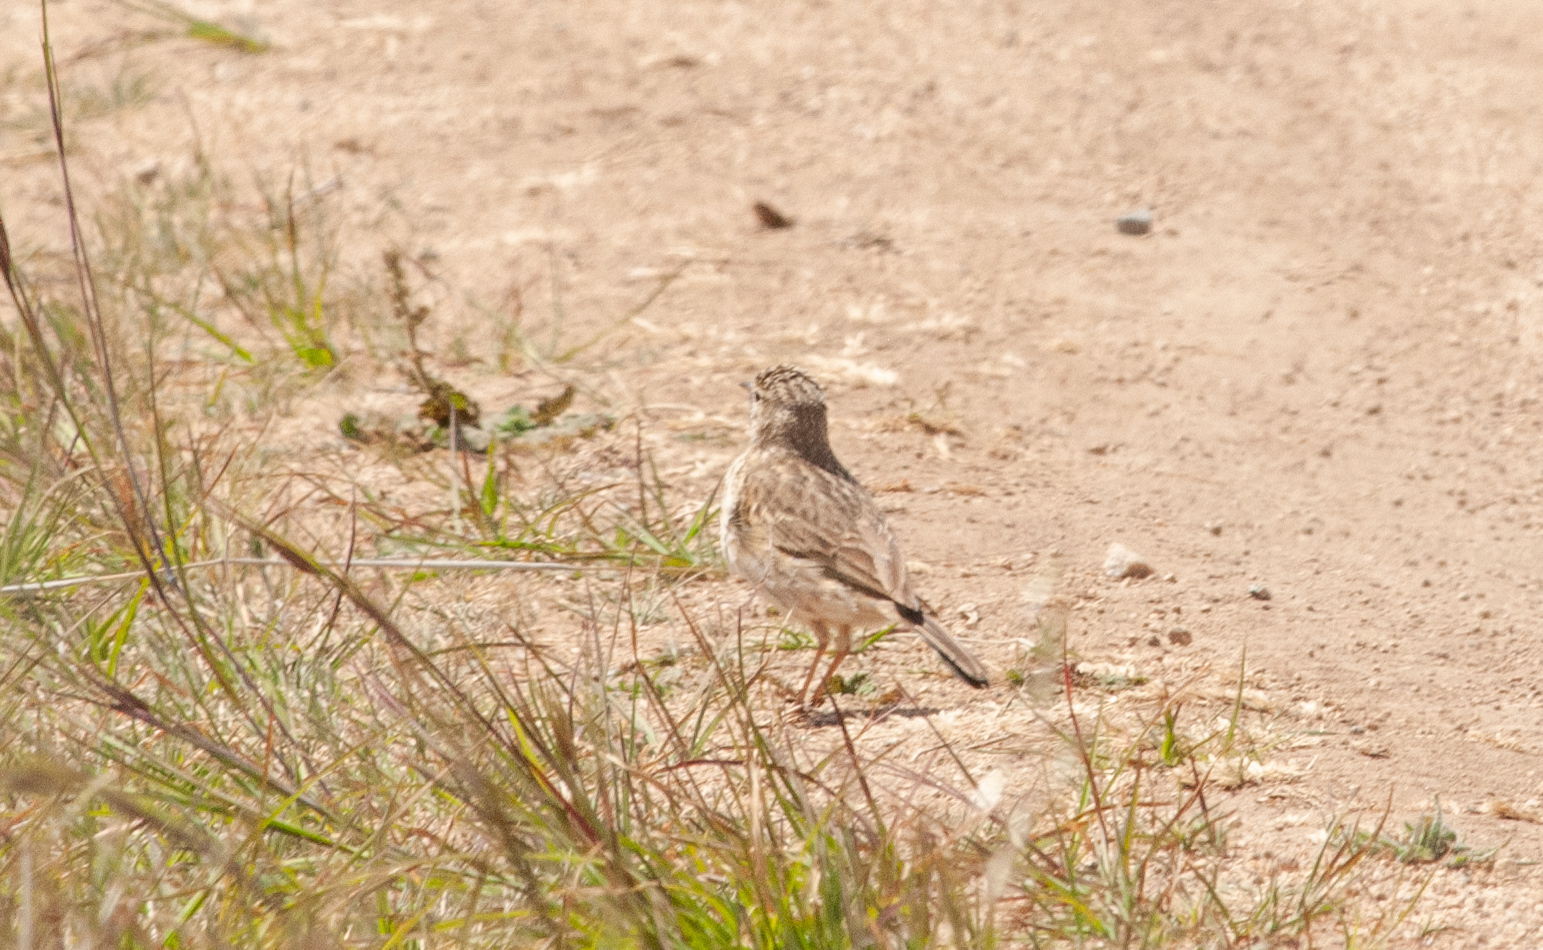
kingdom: Animalia
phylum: Chordata
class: Aves
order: Passeriformes
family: Motacillidae
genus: Anthus
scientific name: Anthus australis
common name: Australian pipit
